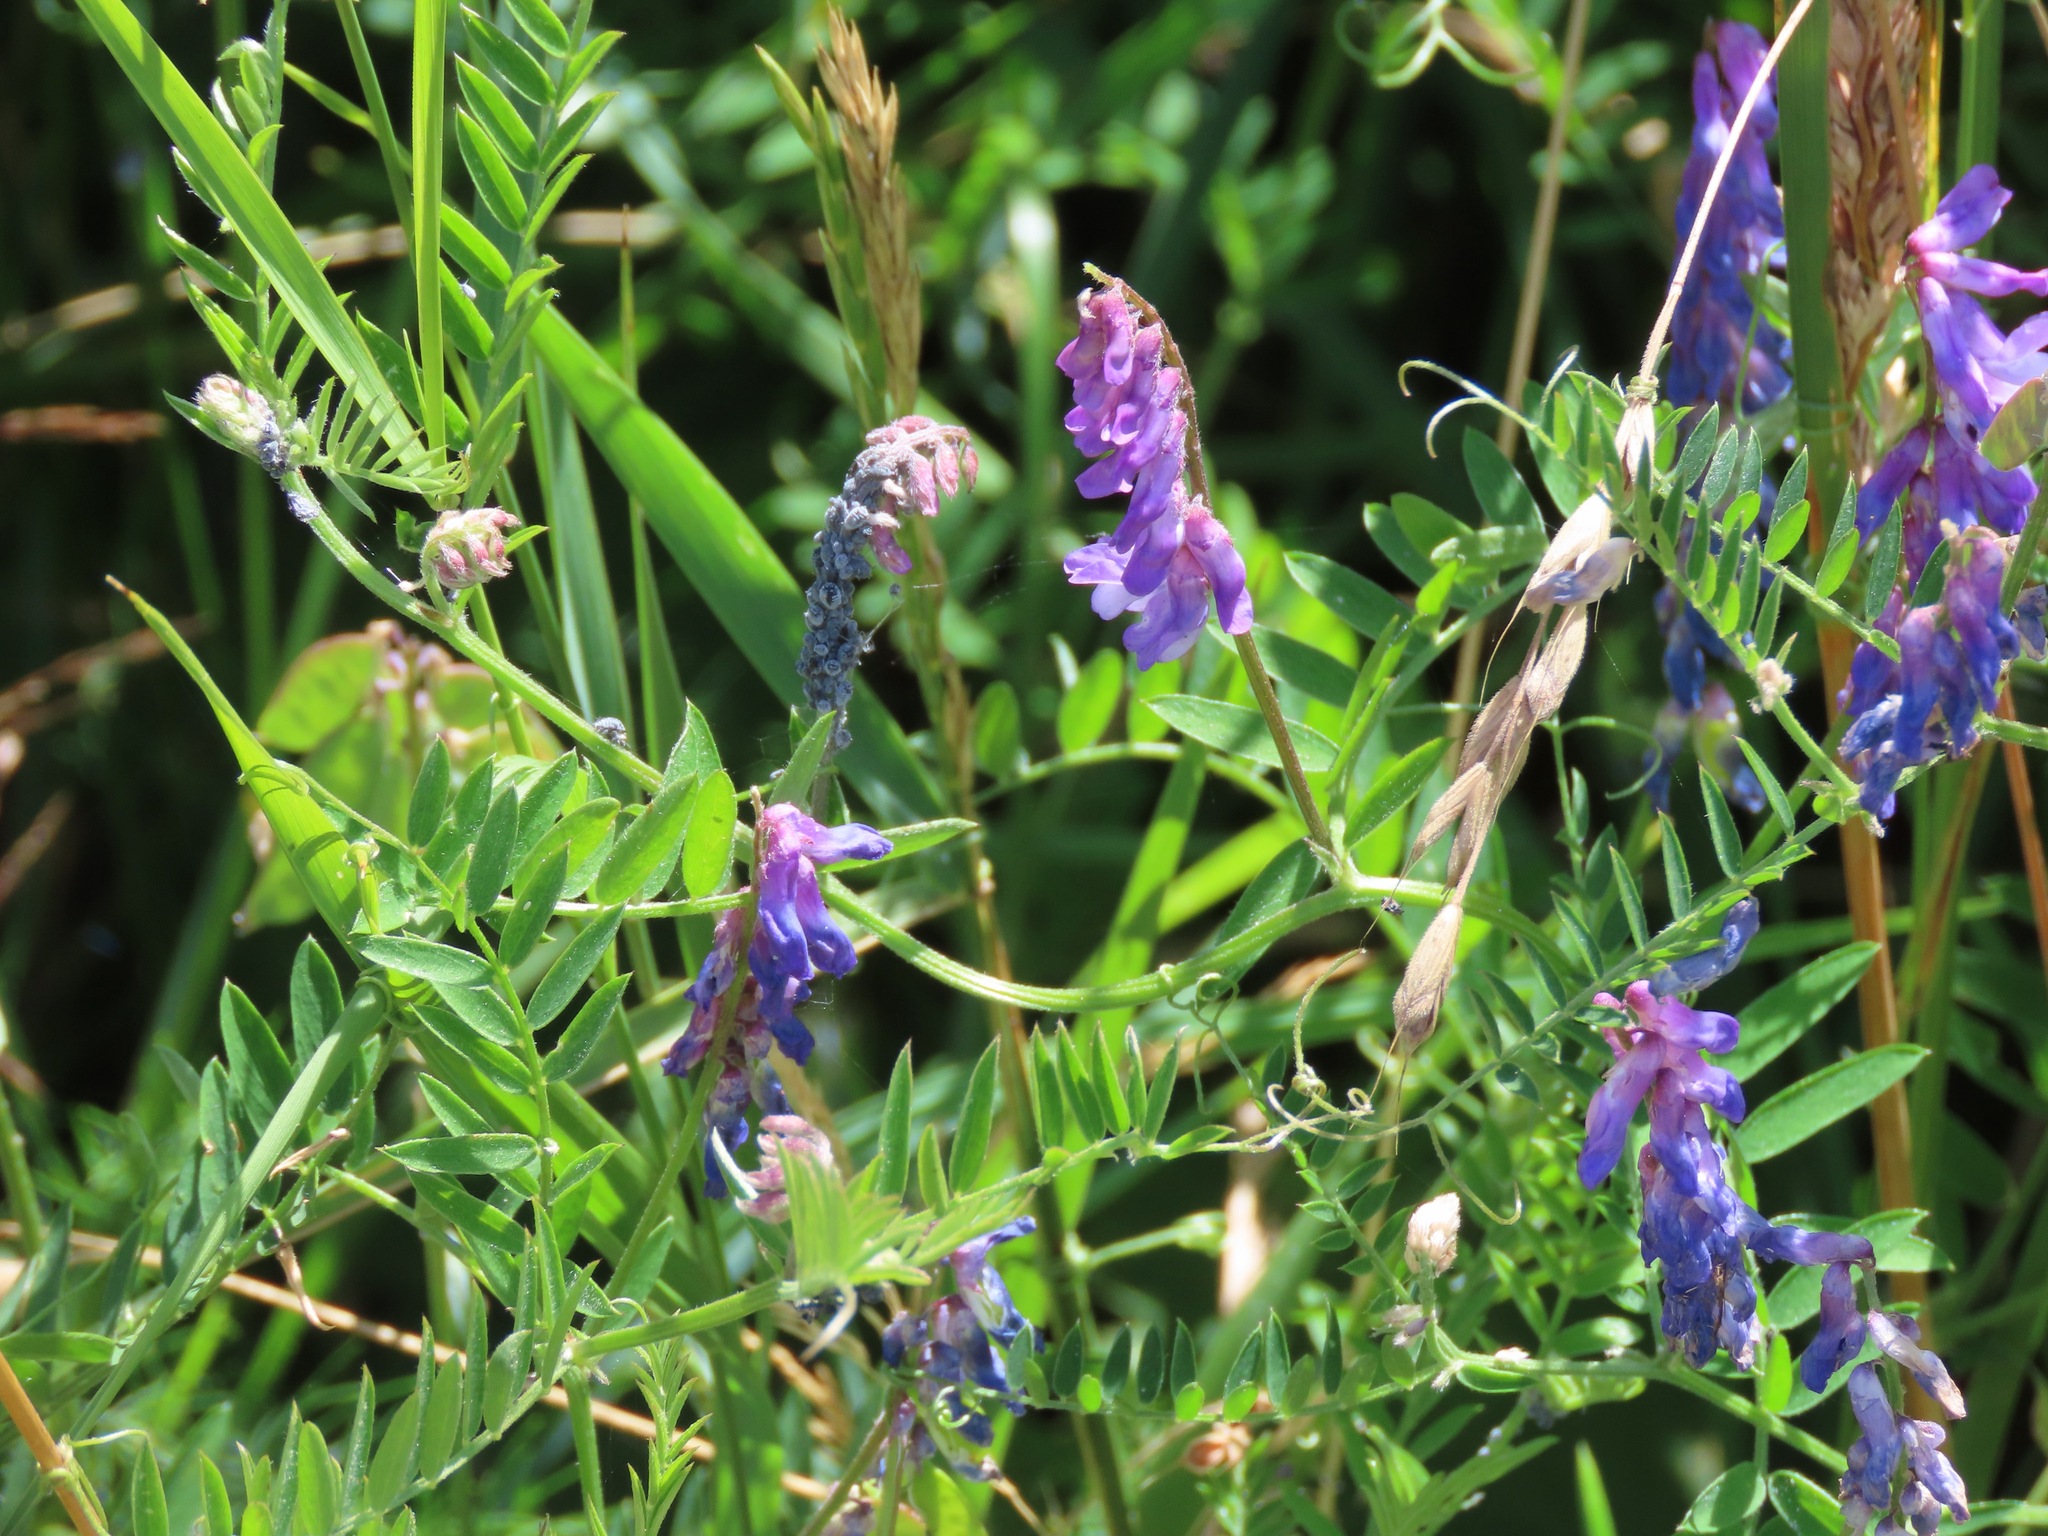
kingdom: Plantae
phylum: Tracheophyta
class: Magnoliopsida
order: Fabales
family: Fabaceae
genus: Vicia
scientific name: Vicia cracca
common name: Bird vetch
